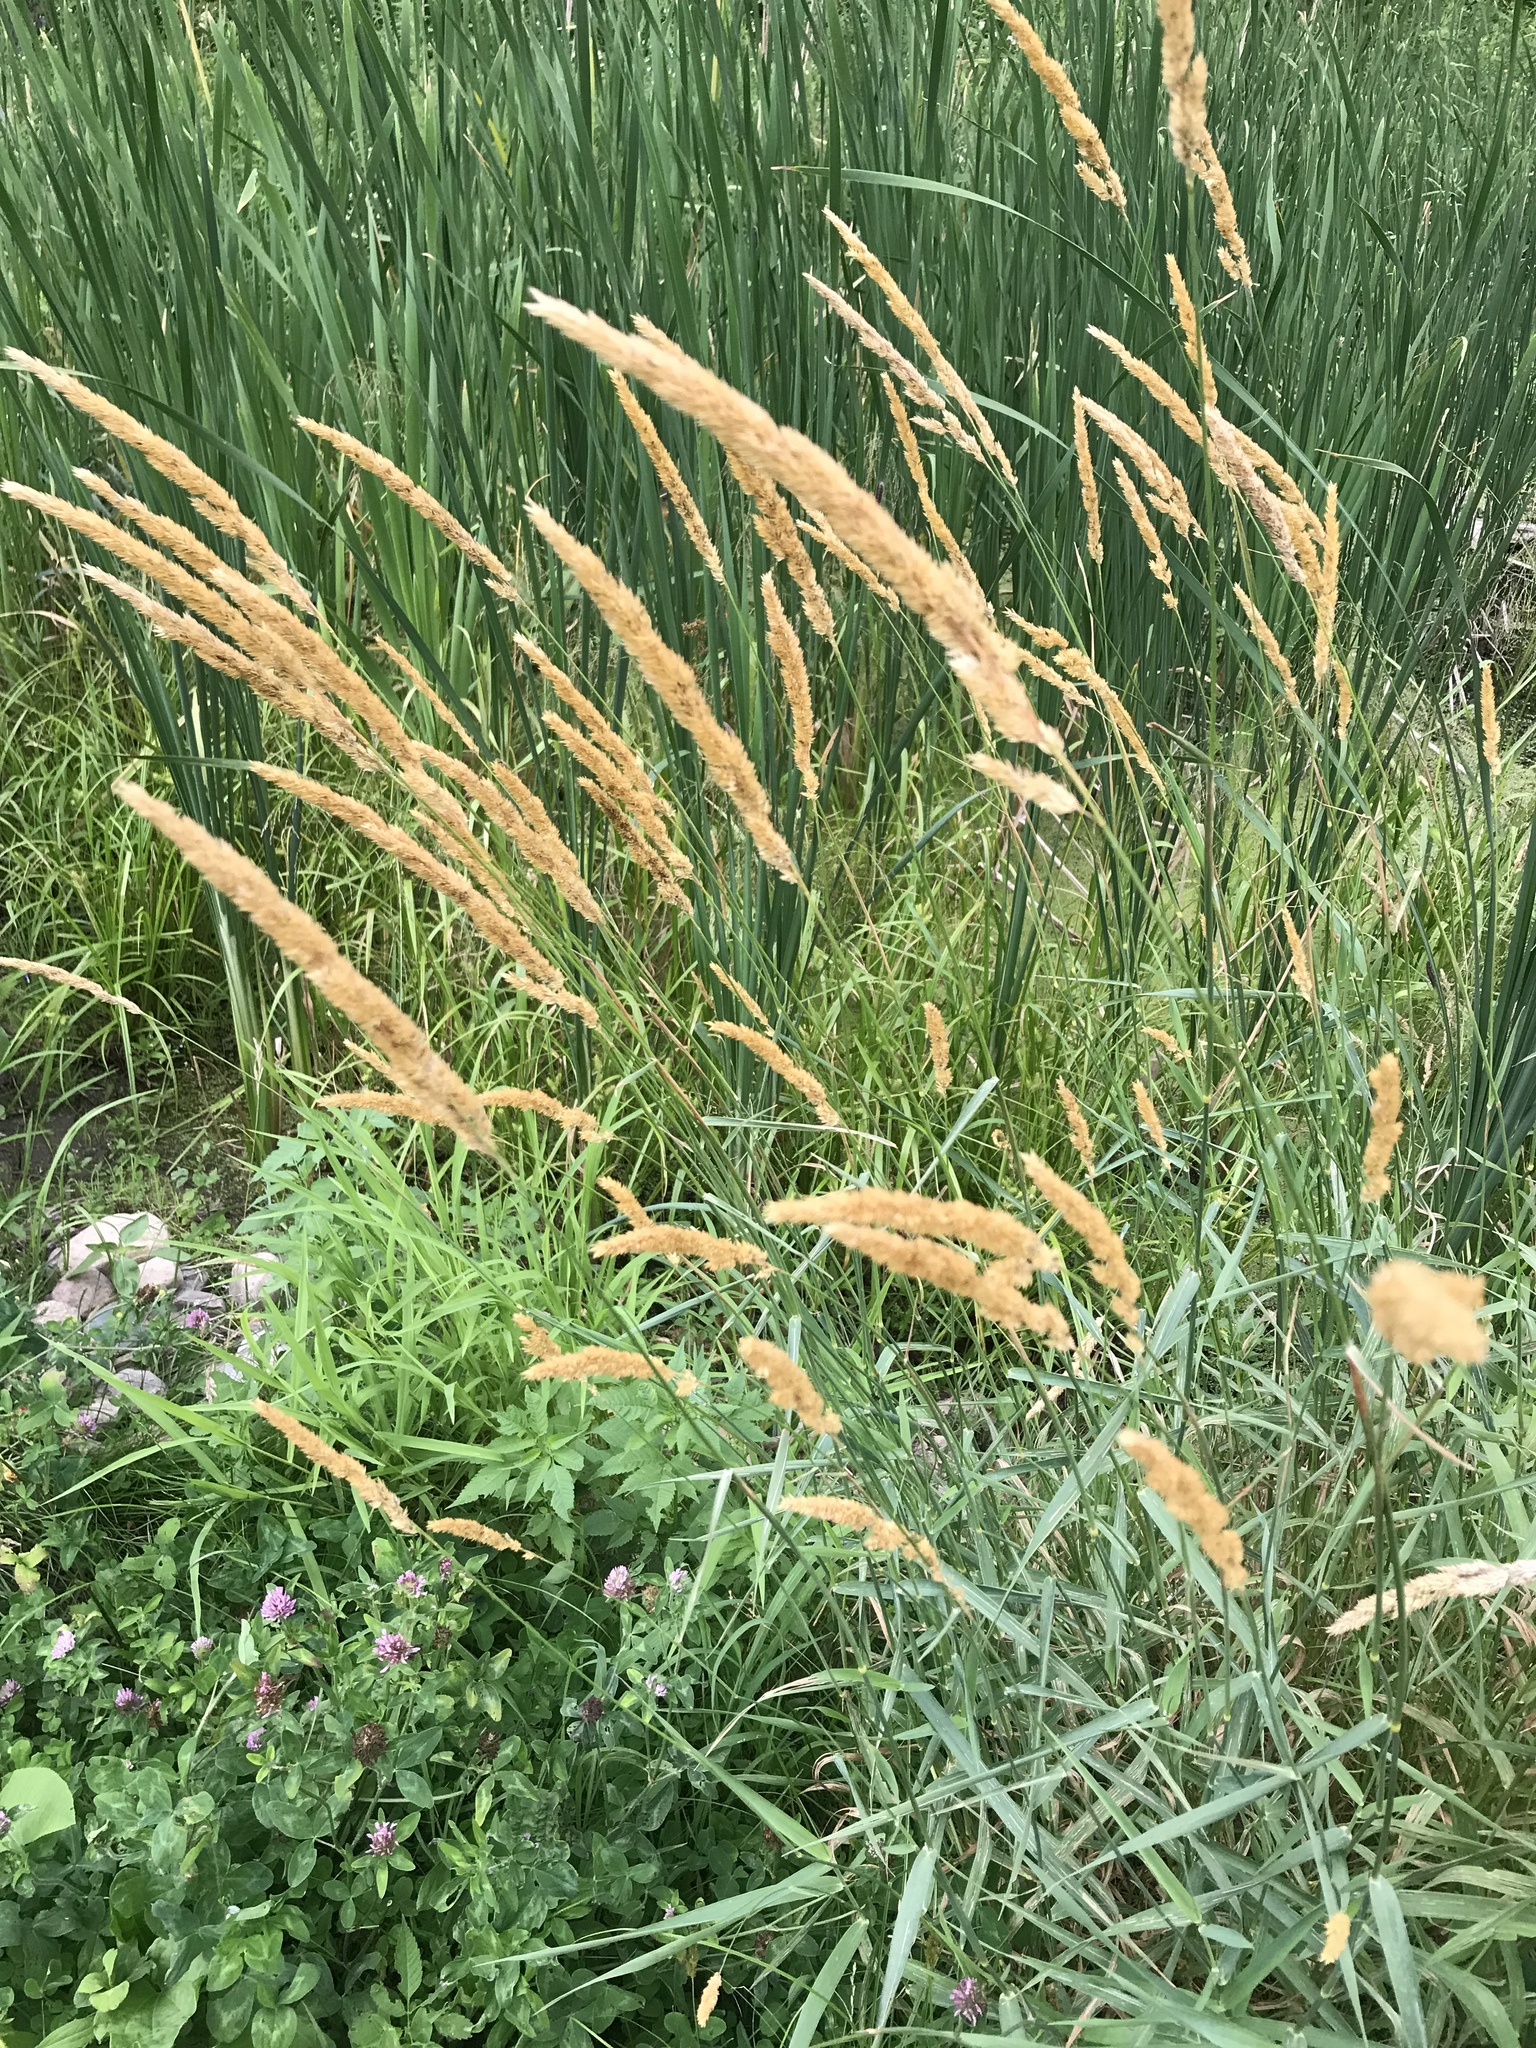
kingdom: Plantae
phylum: Tracheophyta
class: Liliopsida
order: Poales
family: Poaceae
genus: Phalaris
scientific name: Phalaris arundinacea
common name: Reed canary-grass
